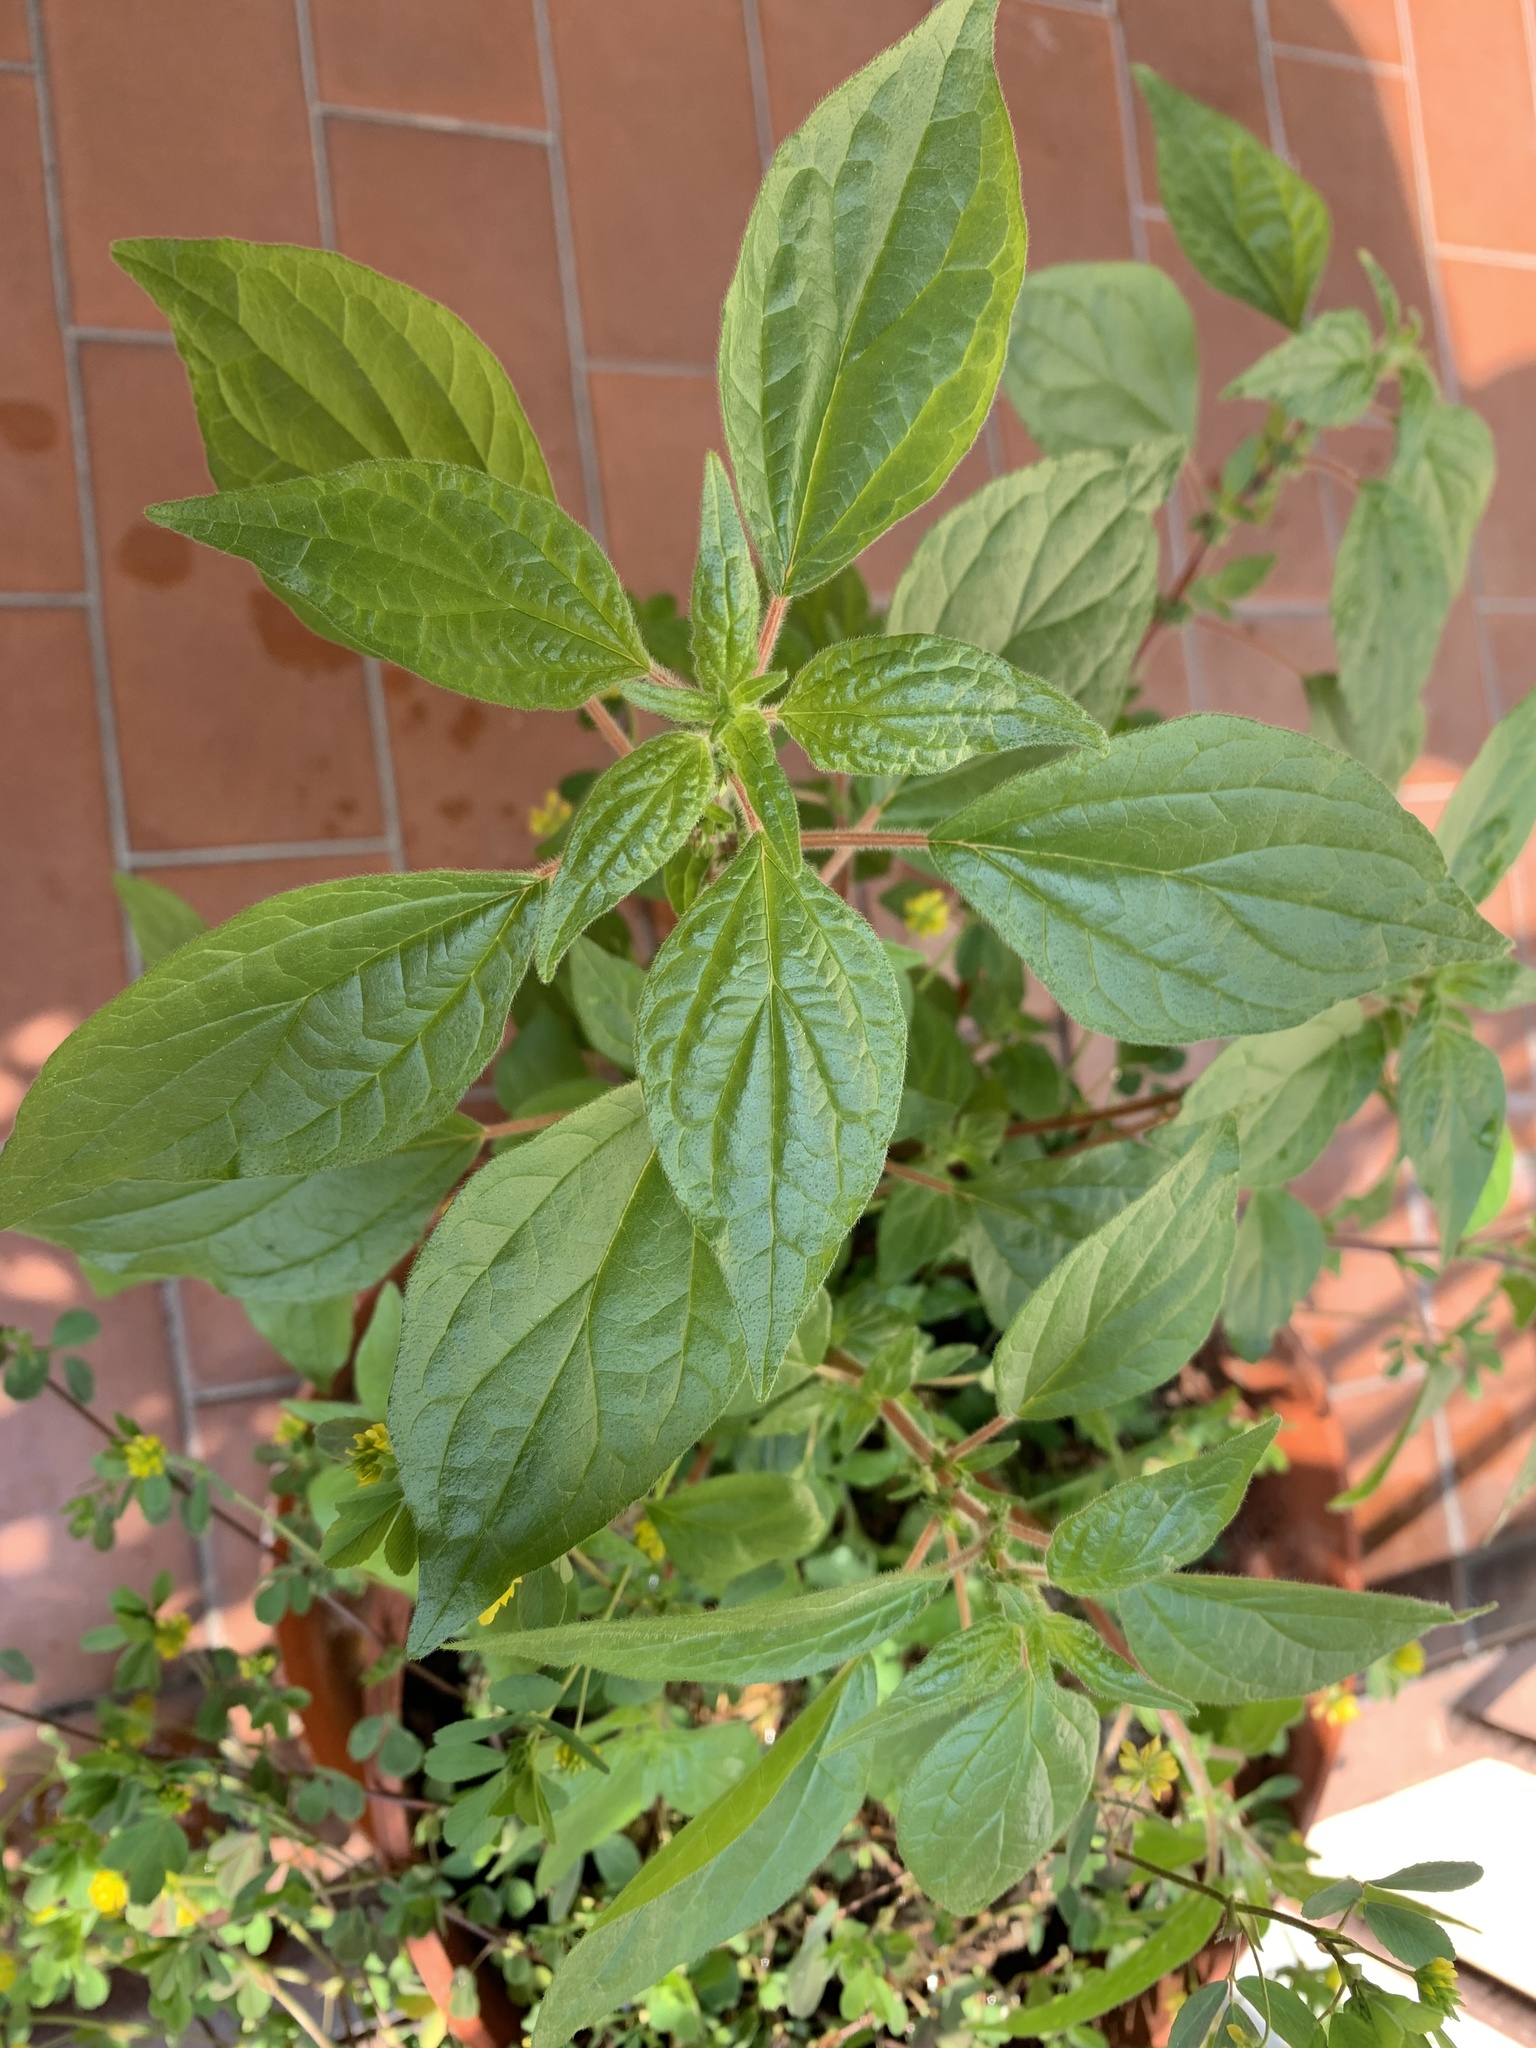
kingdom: Plantae
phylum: Tracheophyta
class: Magnoliopsida
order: Rosales
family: Urticaceae
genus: Parietaria
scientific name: Parietaria judaica
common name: Pellitory-of-the-wall
